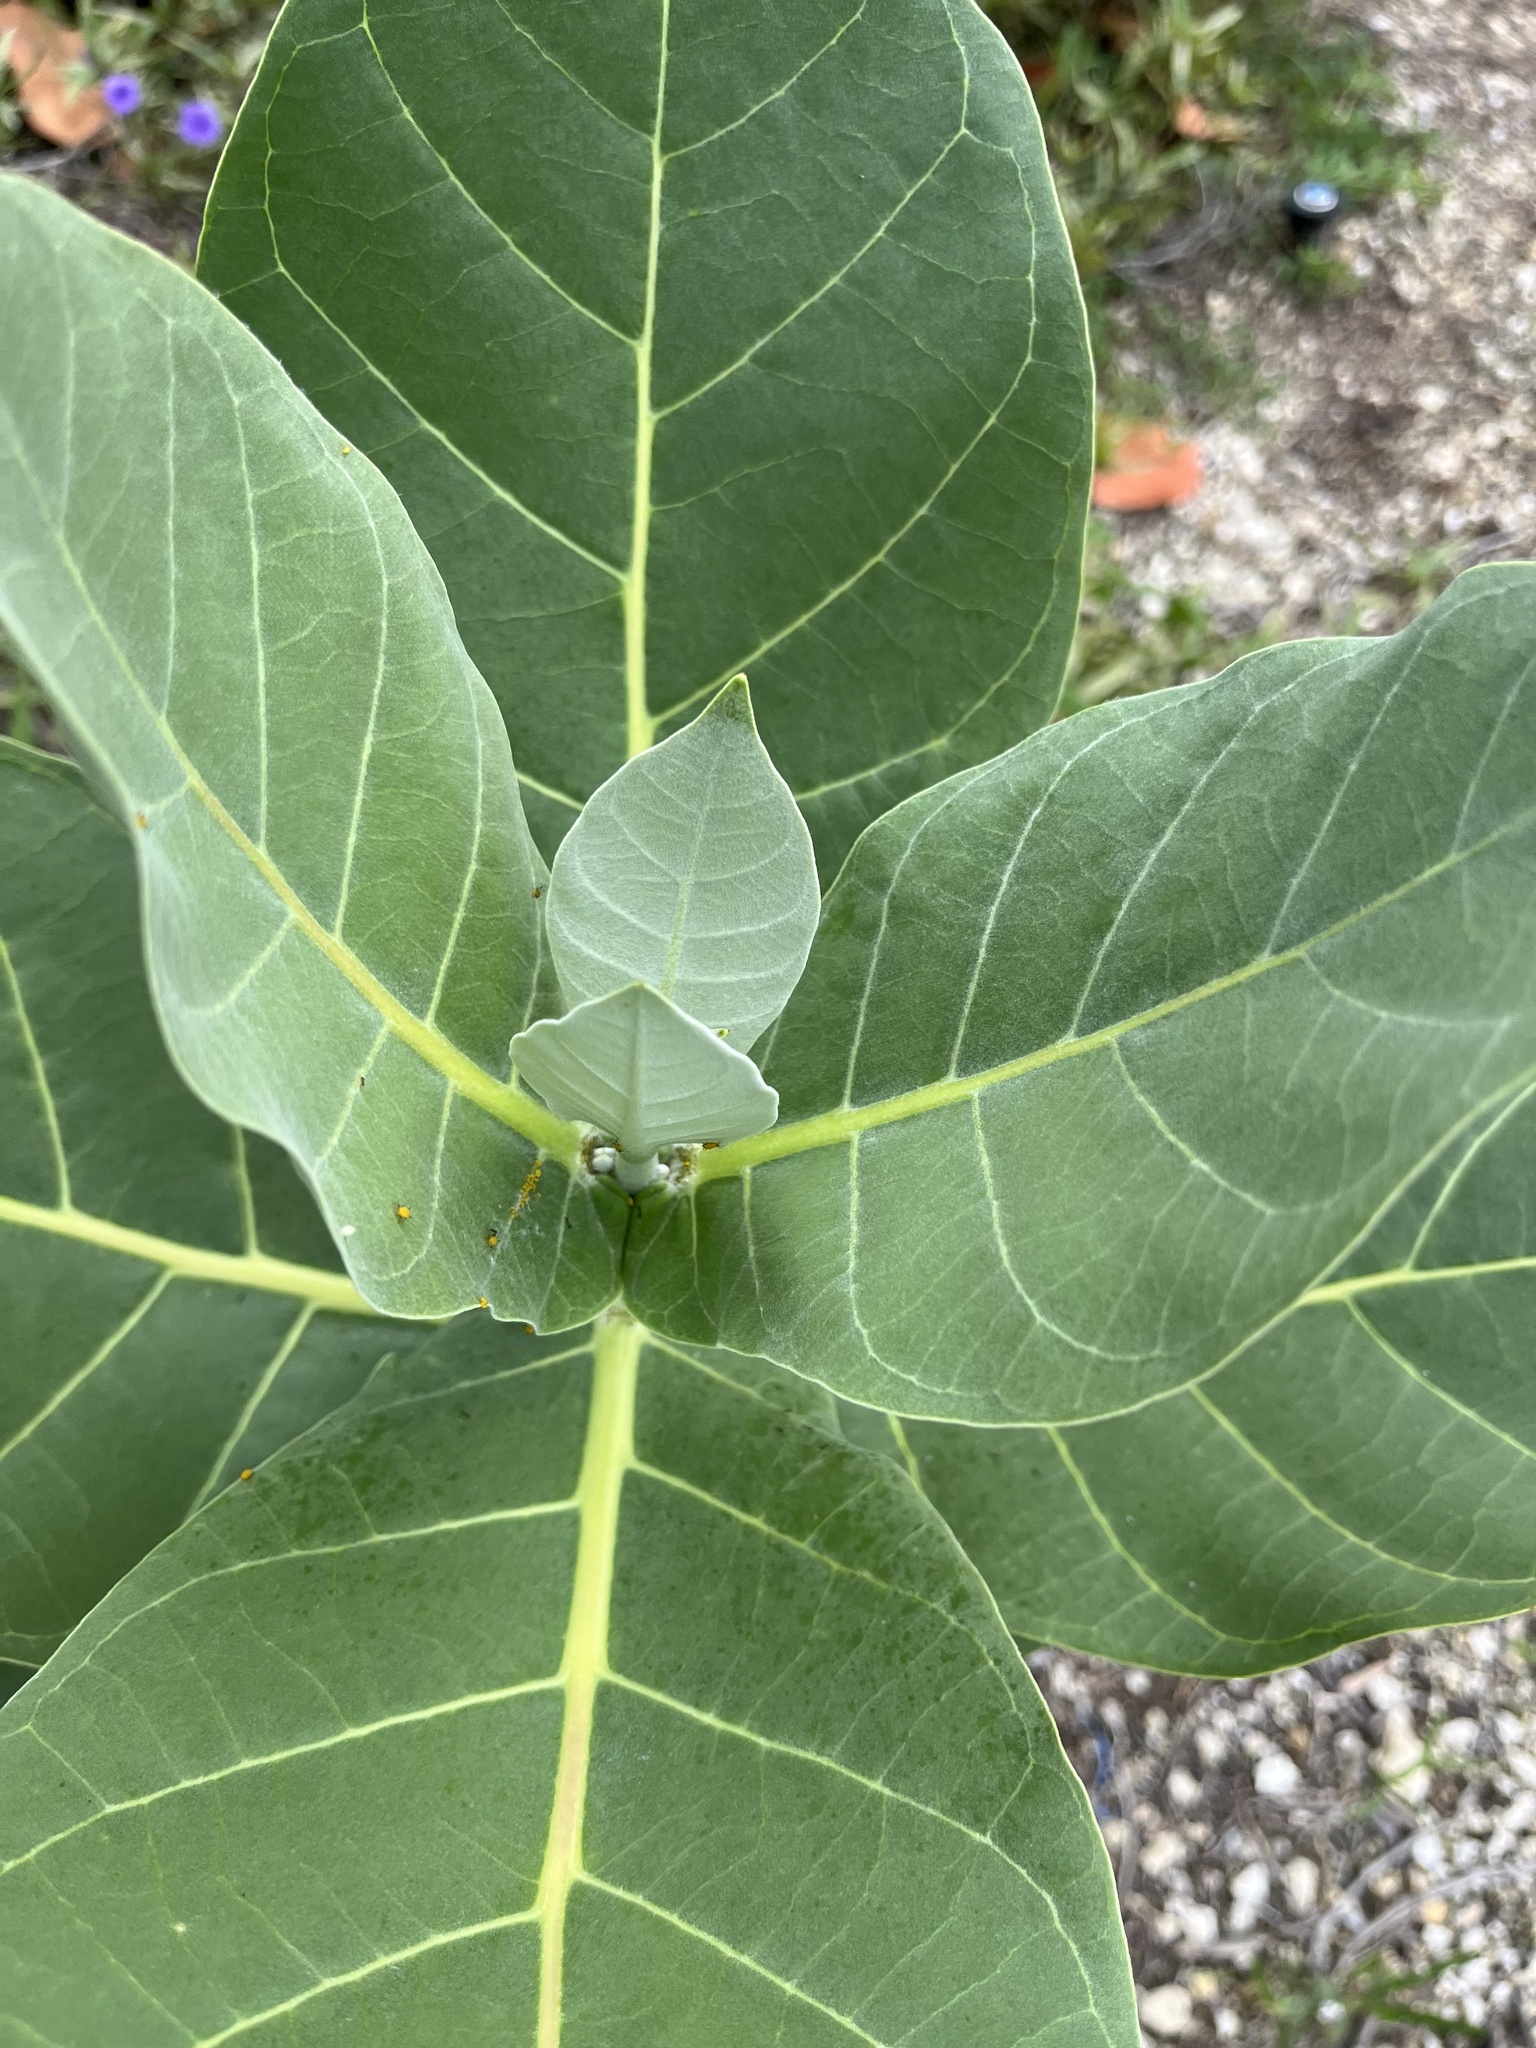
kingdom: Plantae
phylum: Tracheophyta
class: Magnoliopsida
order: Gentianales
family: Apocynaceae
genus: Calotropis
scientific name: Calotropis procera
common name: Roostertree
